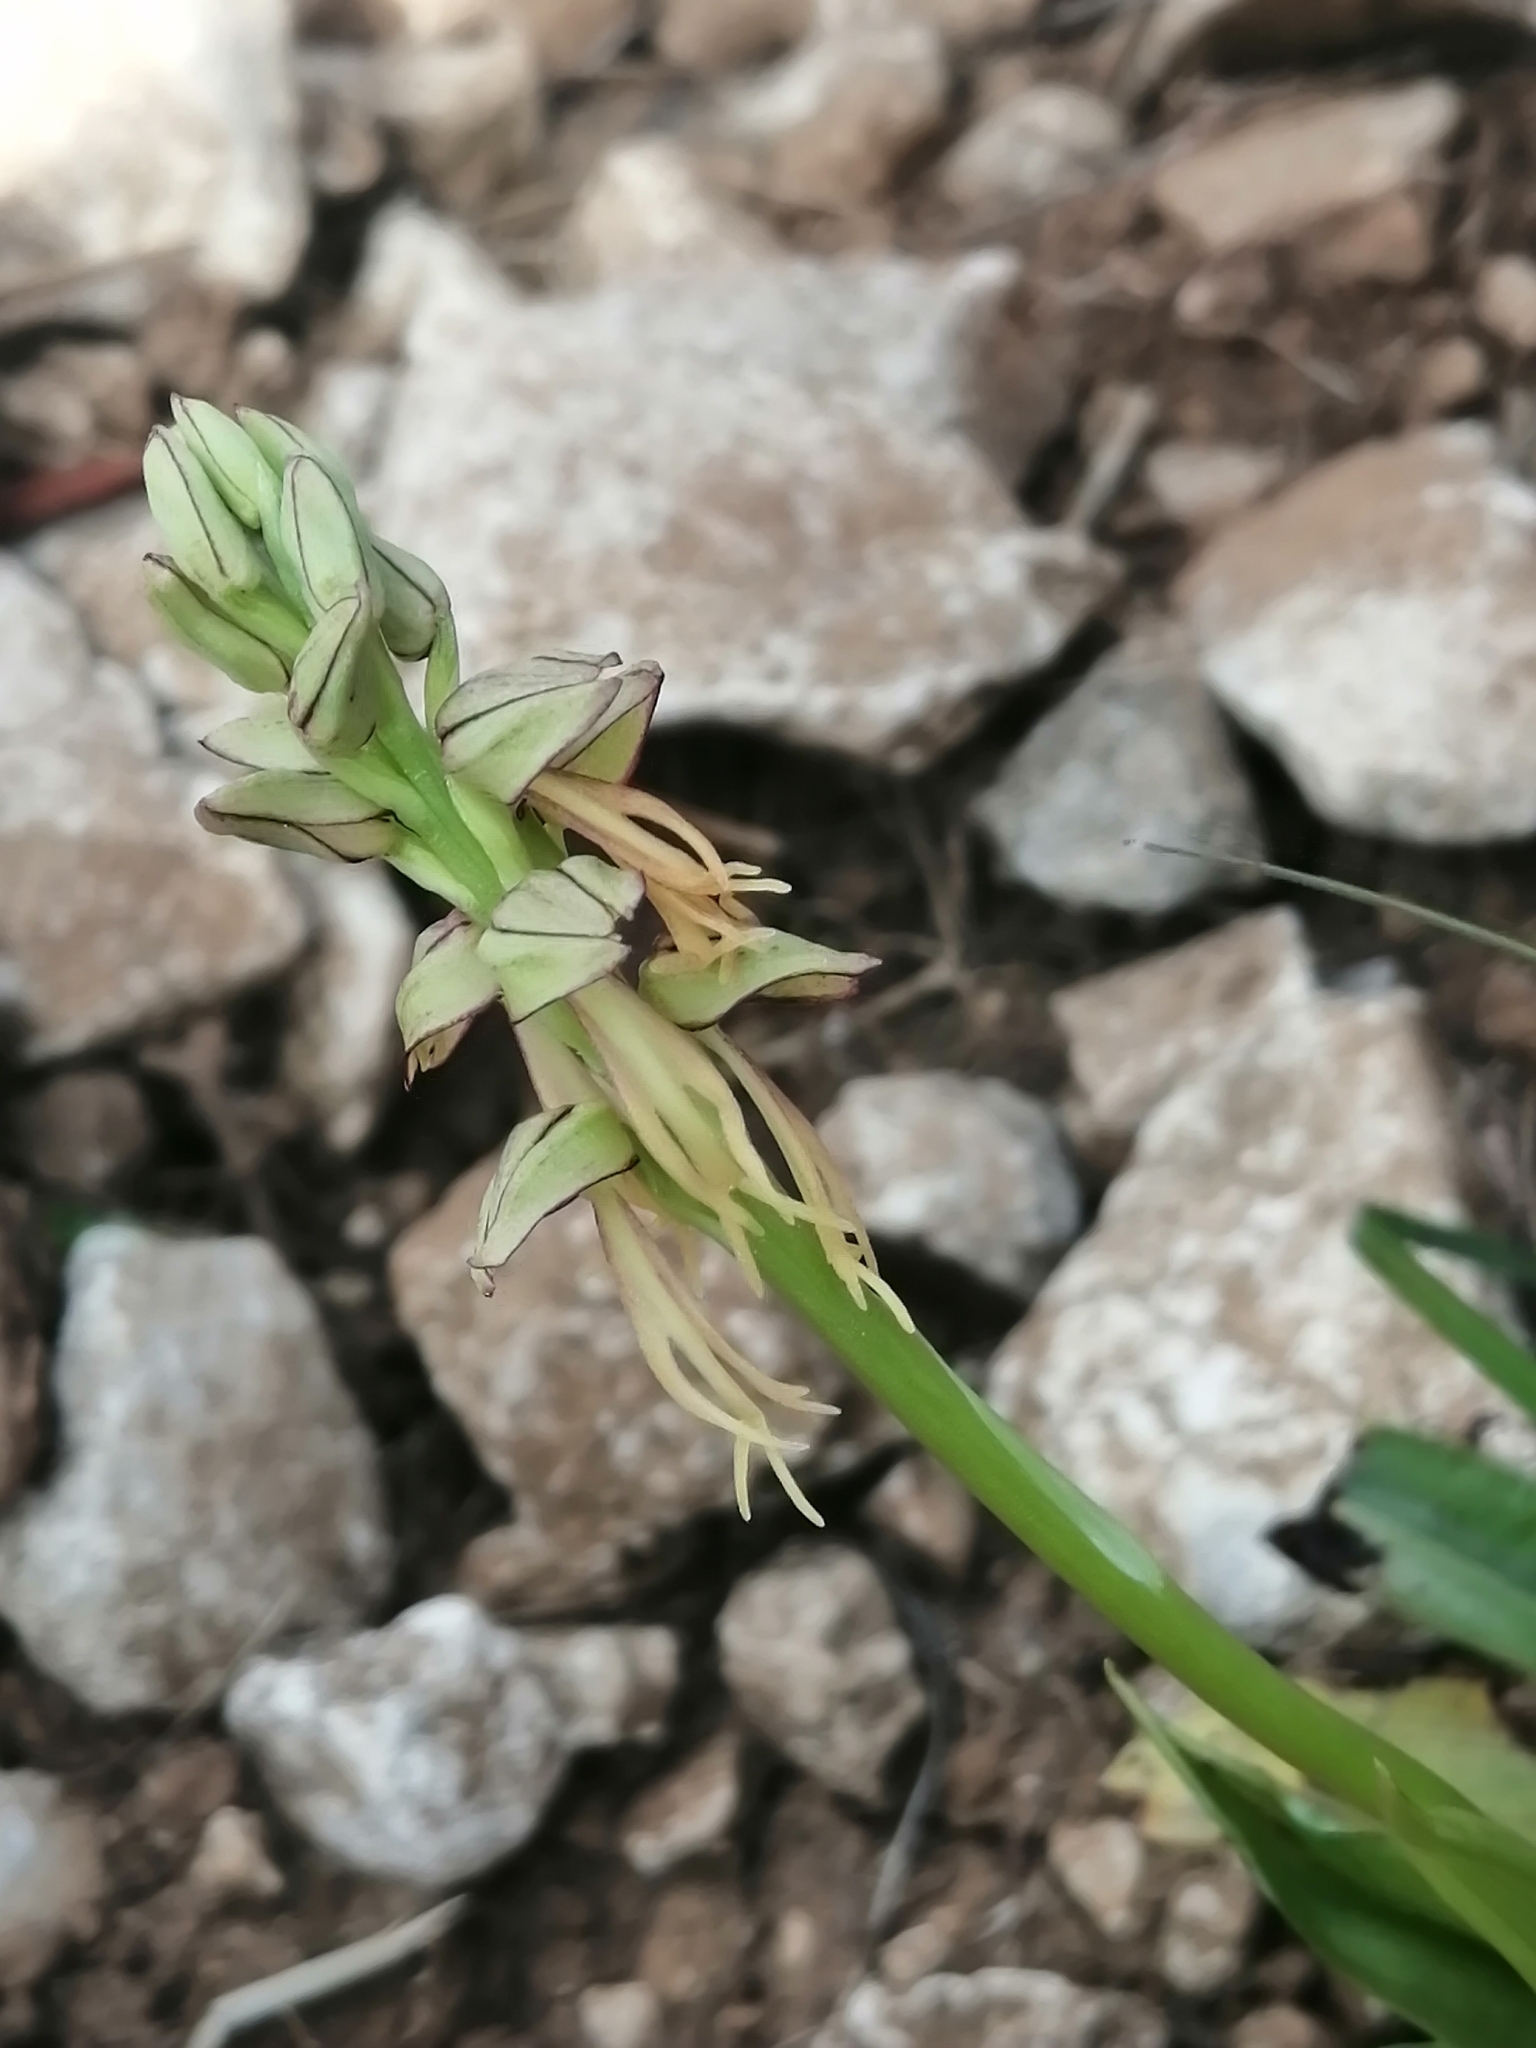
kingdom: Plantae
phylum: Tracheophyta
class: Liliopsida
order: Asparagales
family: Orchidaceae
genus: Orchis
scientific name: Orchis anthropophora
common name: Man orchid
